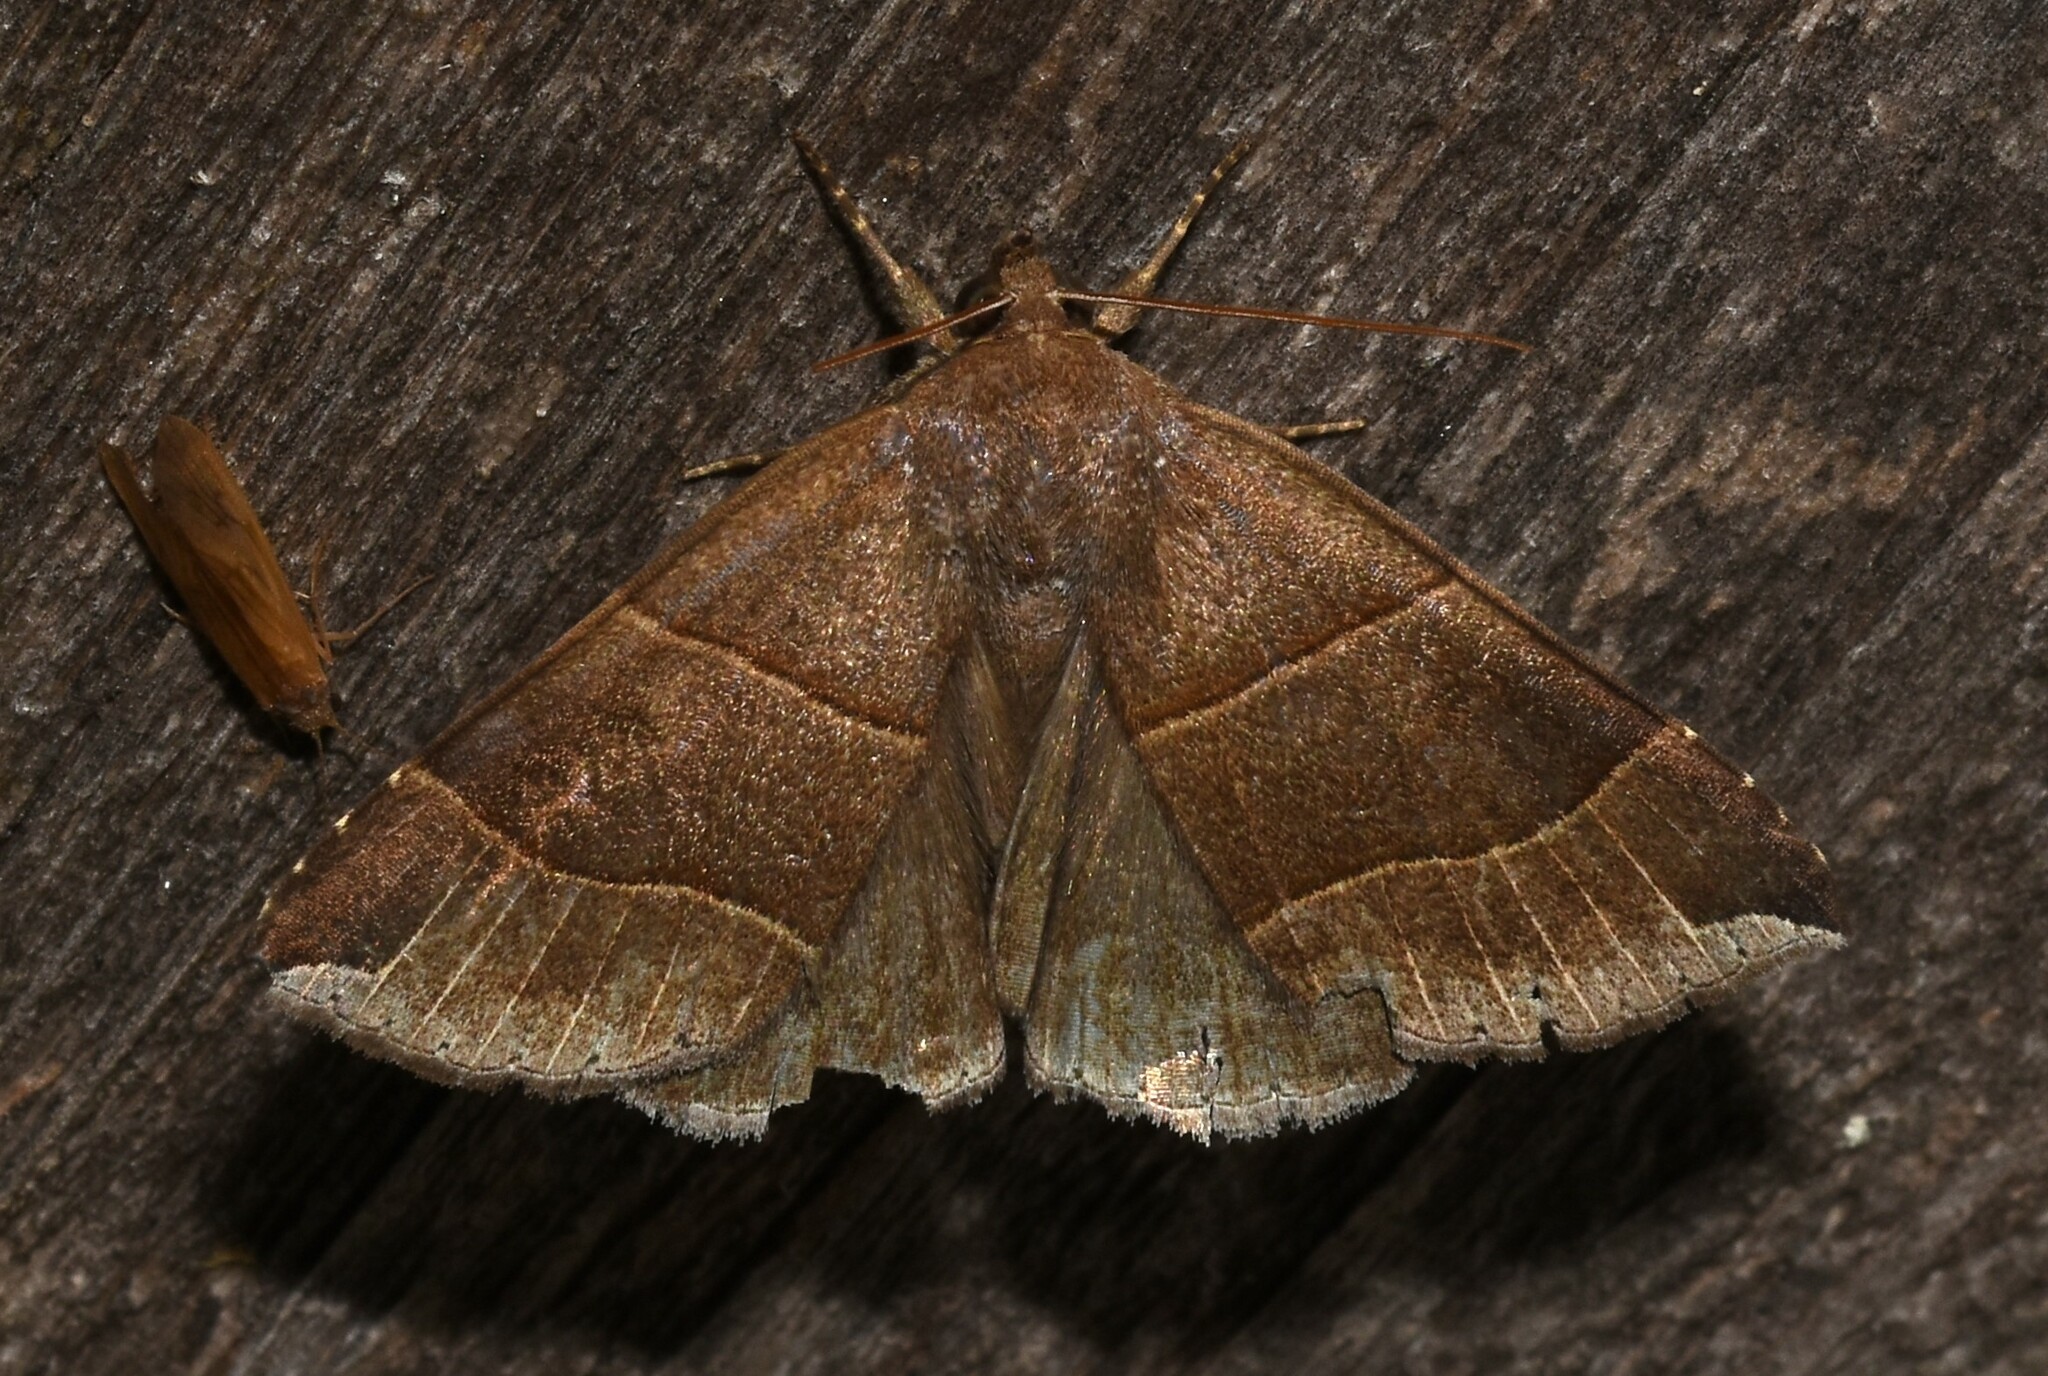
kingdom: Animalia
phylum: Arthropoda
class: Insecta
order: Lepidoptera
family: Erebidae
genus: Parallelia
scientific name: Parallelia bistriaris
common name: Maple looper moth
